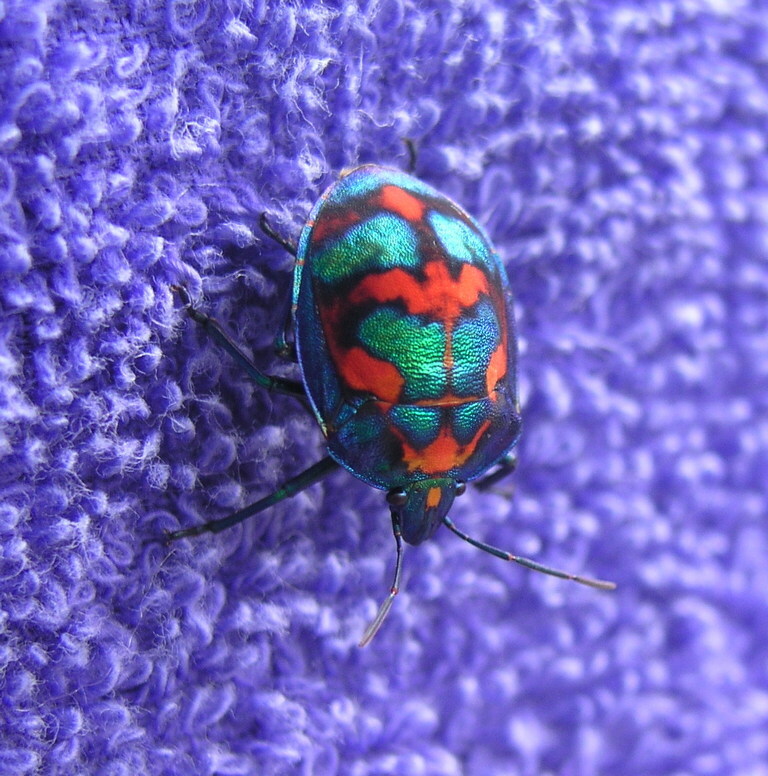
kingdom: Animalia
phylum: Arthropoda
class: Insecta
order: Hemiptera
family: Scutelleridae
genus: Tectocoris
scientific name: Tectocoris diophthalmus
